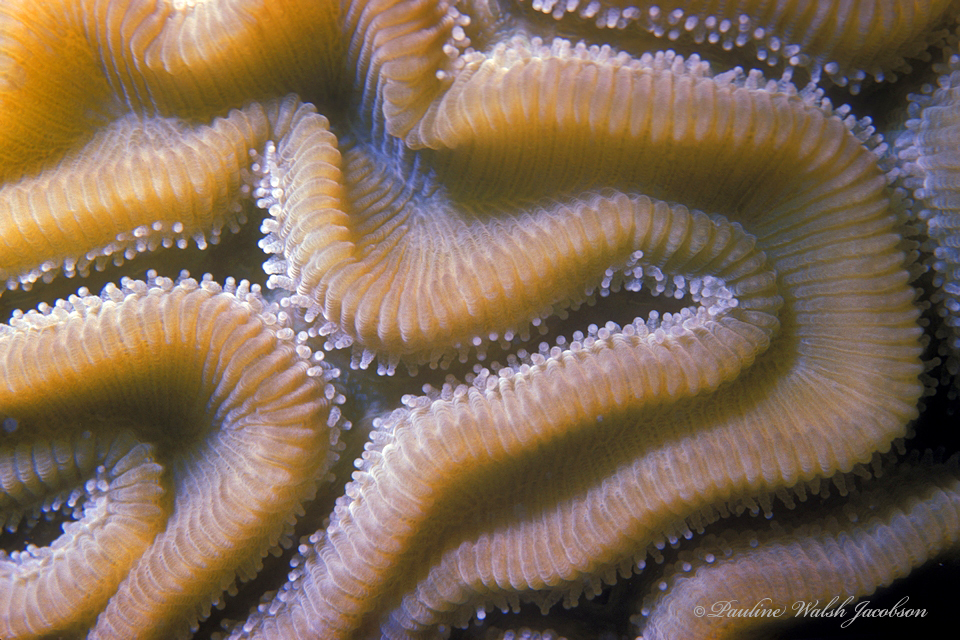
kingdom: Animalia
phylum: Cnidaria
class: Anthozoa
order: Scleractinia
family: Faviidae
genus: Diploria
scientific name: Diploria labyrinthiformis
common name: Grooved brain coral
